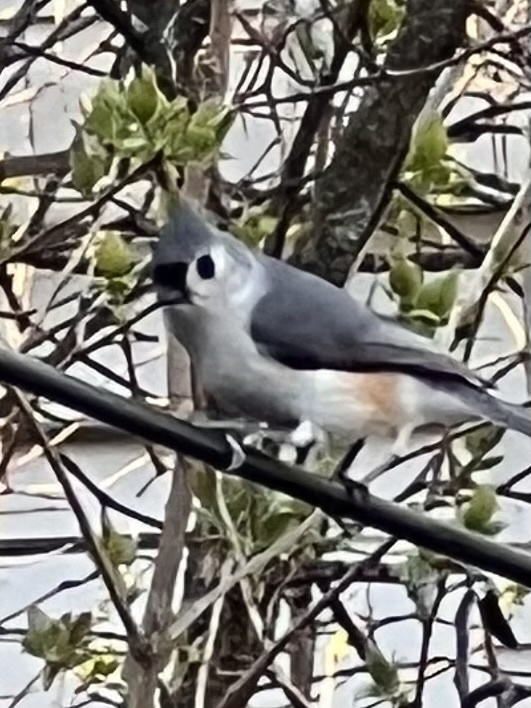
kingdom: Animalia
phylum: Chordata
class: Aves
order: Passeriformes
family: Paridae
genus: Baeolophus
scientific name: Baeolophus bicolor
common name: Tufted titmouse
